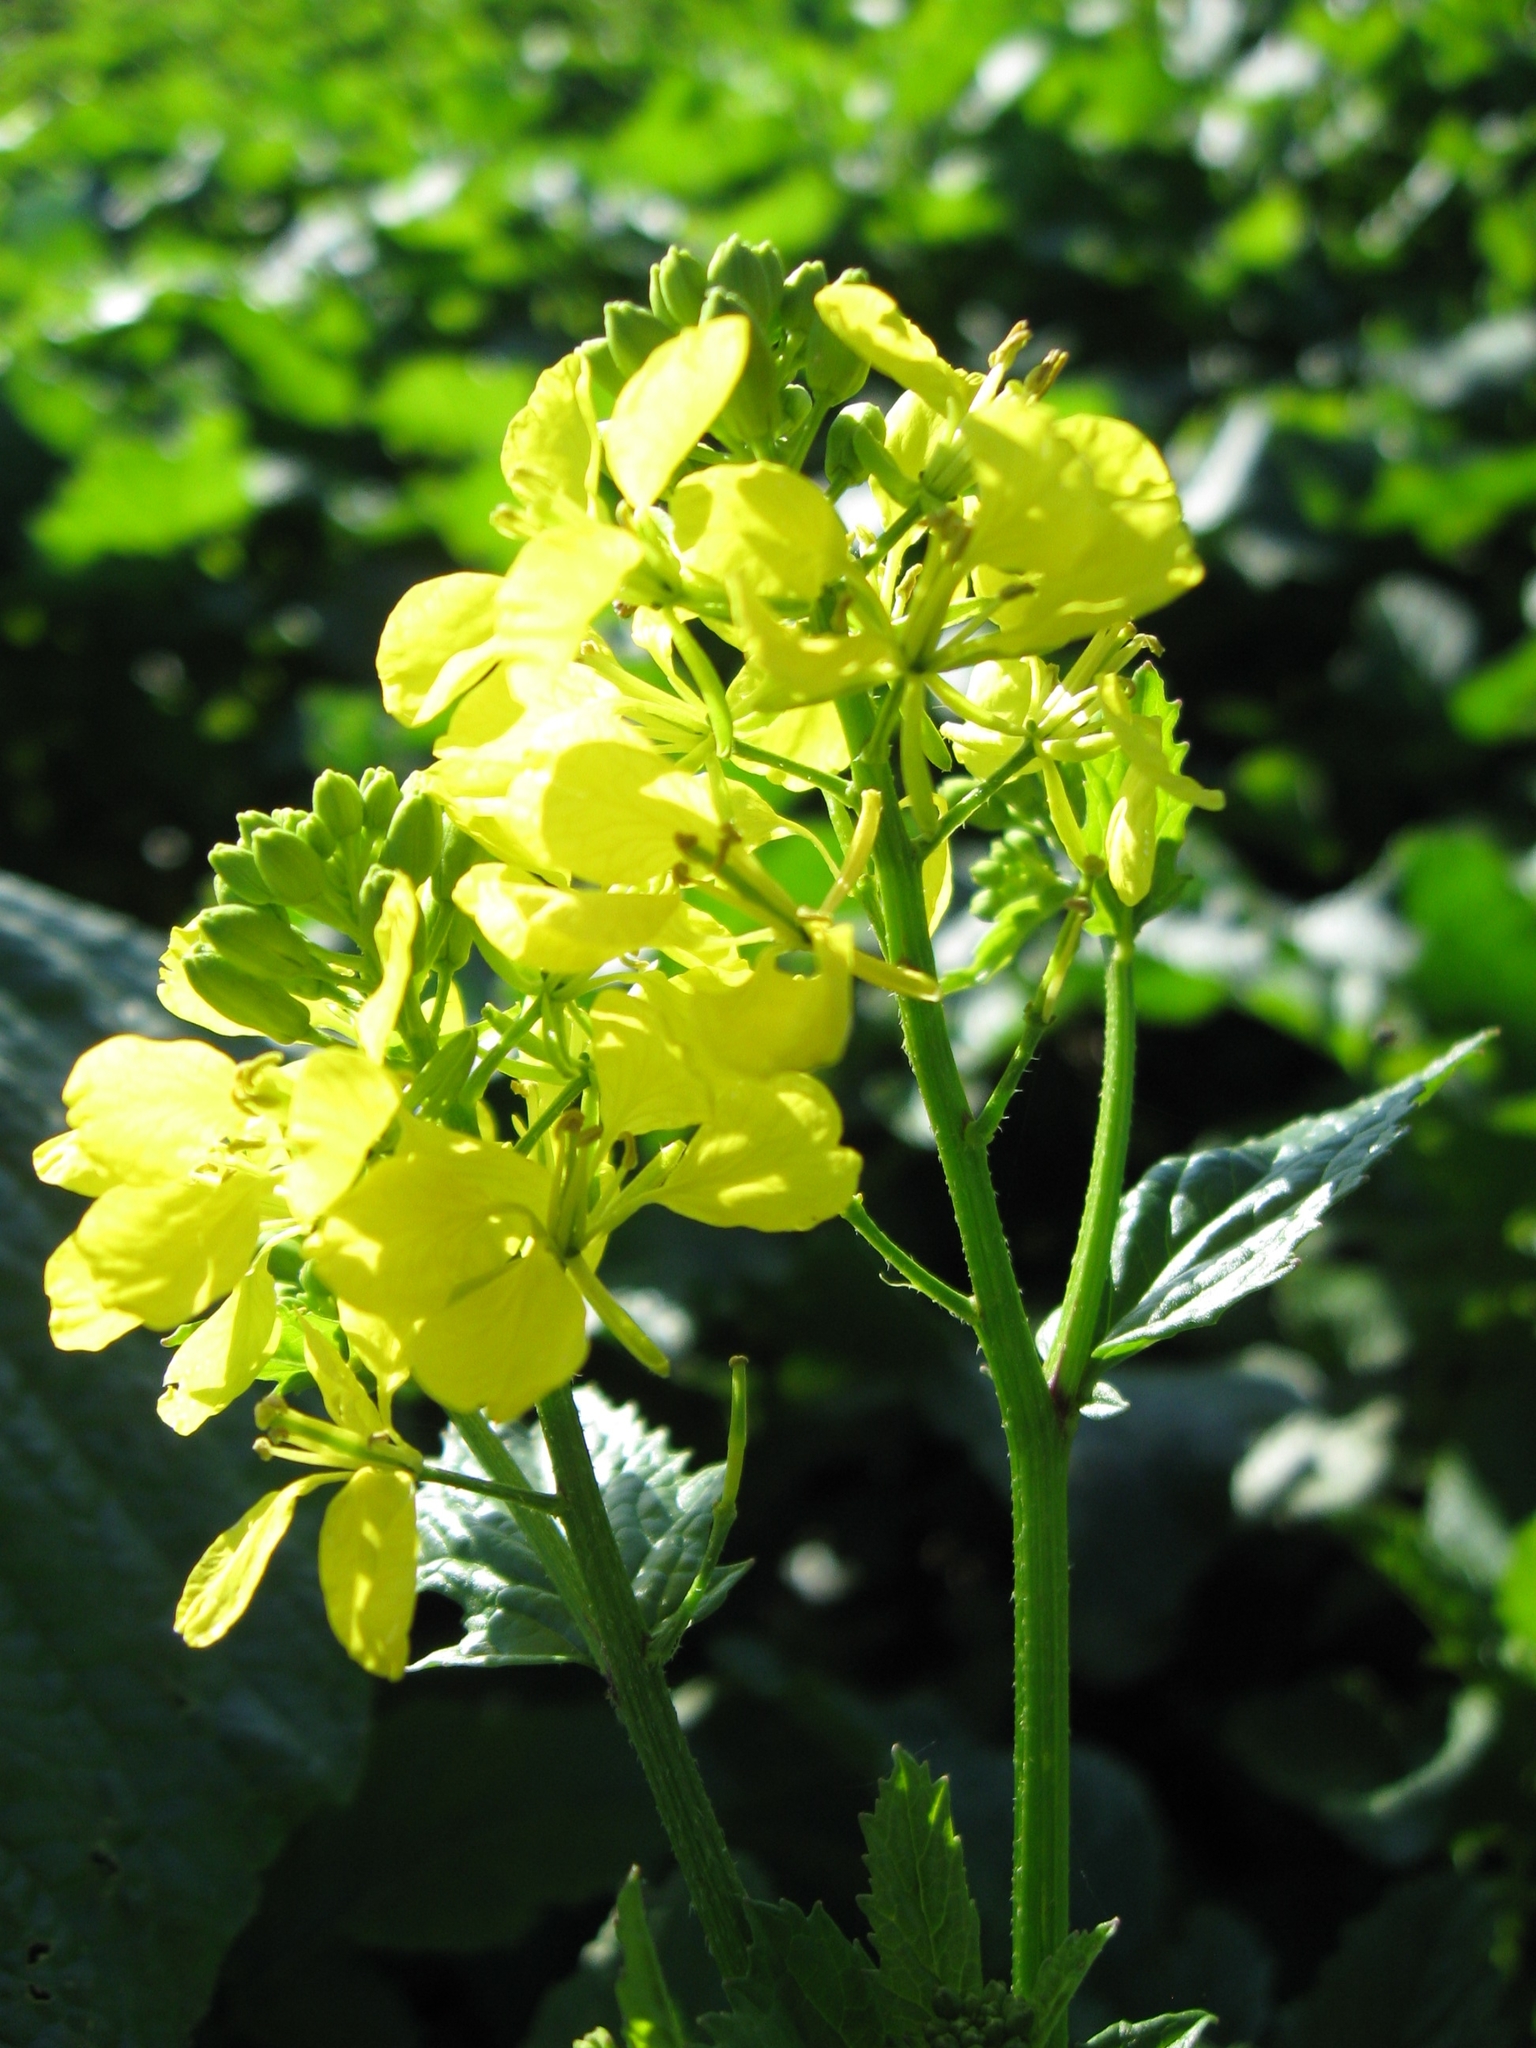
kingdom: Plantae
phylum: Tracheophyta
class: Magnoliopsida
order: Brassicales
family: Brassicaceae
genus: Sinapis
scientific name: Sinapis arvensis
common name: Charlock
